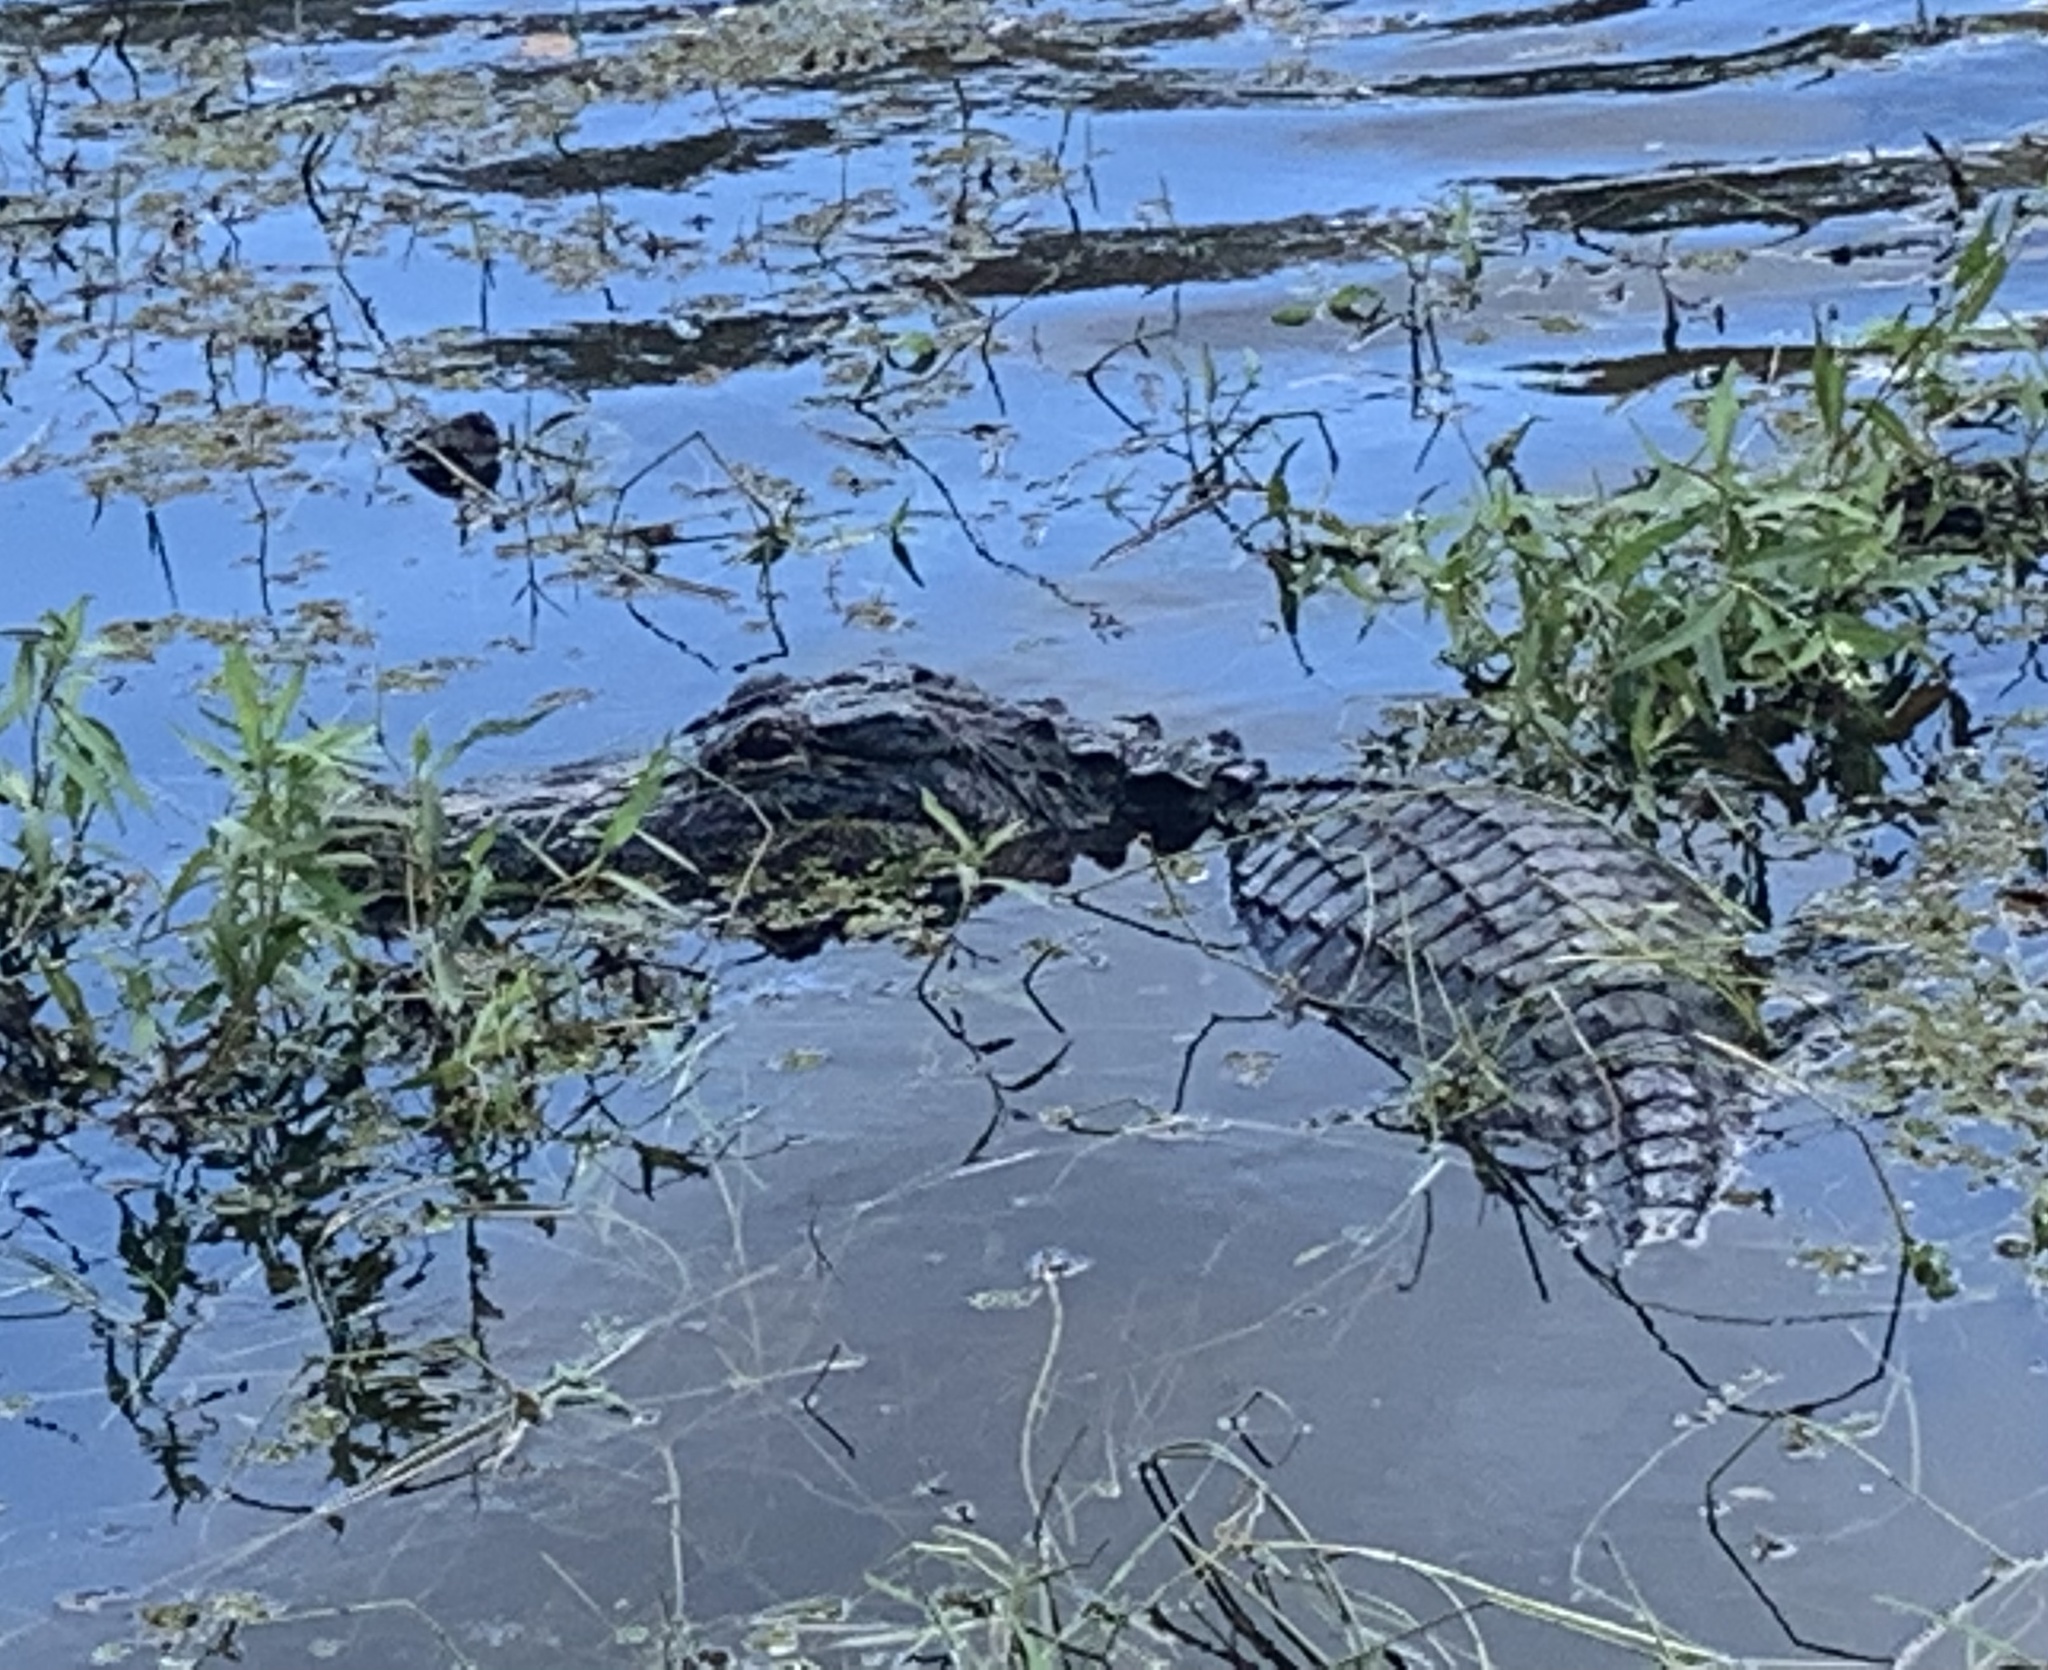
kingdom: Animalia
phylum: Chordata
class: Crocodylia
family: Alligatoridae
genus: Alligator
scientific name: Alligator mississippiensis
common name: American alligator
